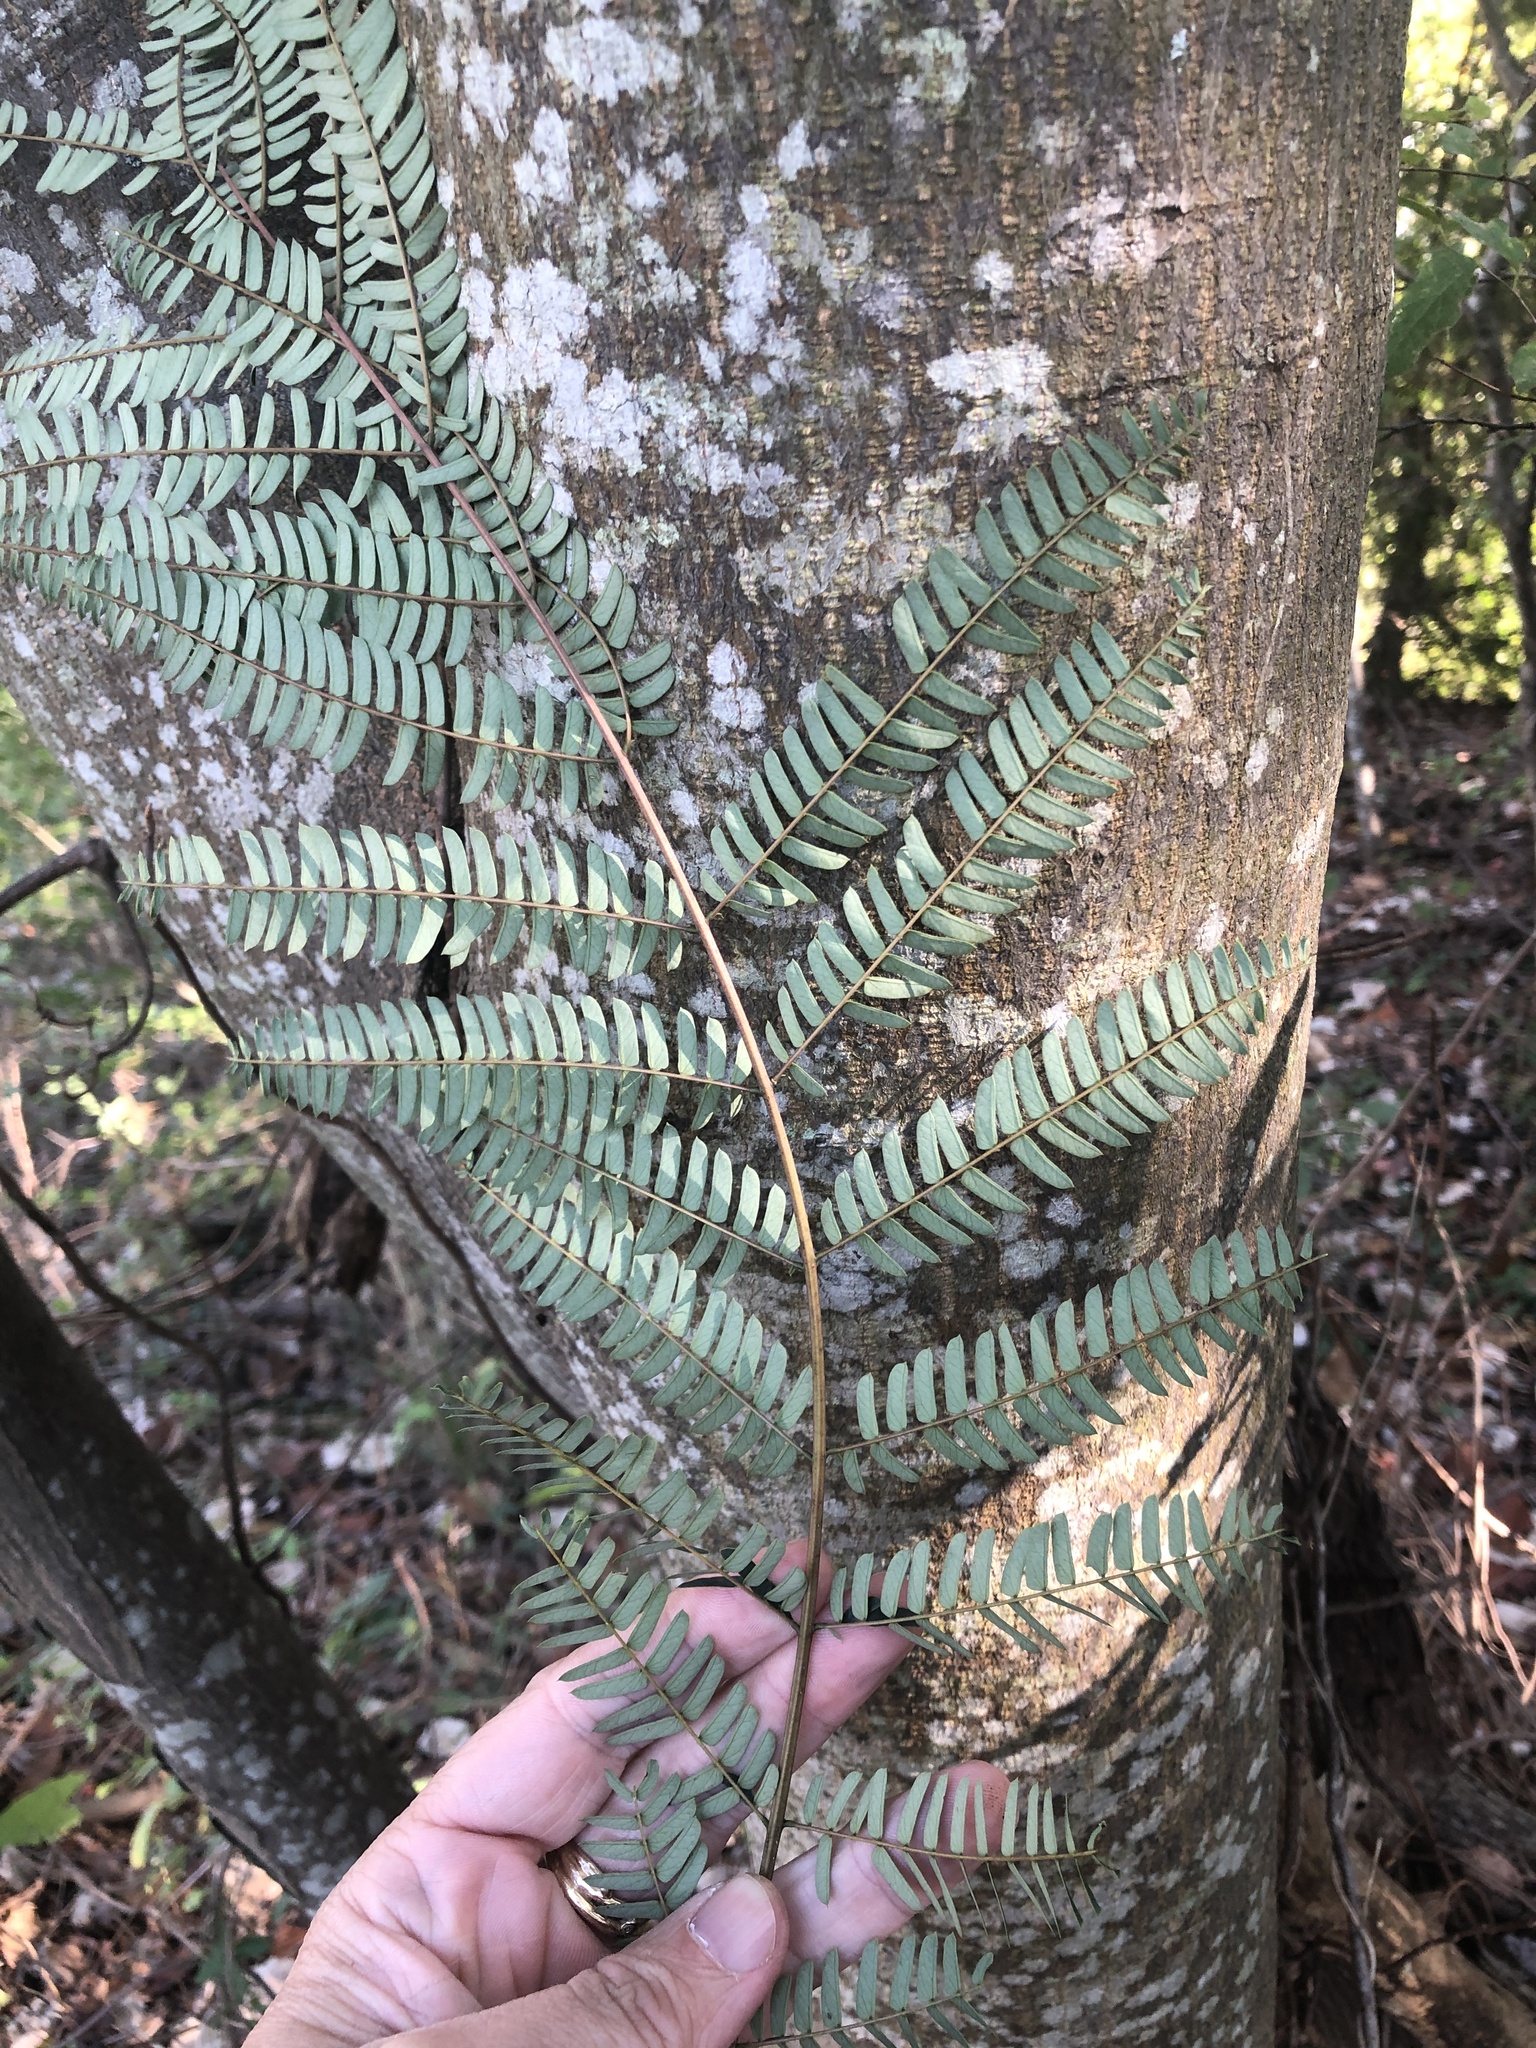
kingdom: Plantae
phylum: Tracheophyta
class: Magnoliopsida
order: Fabales
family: Fabaceae
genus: Albizia
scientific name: Albizia julibrissin
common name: Silktree
